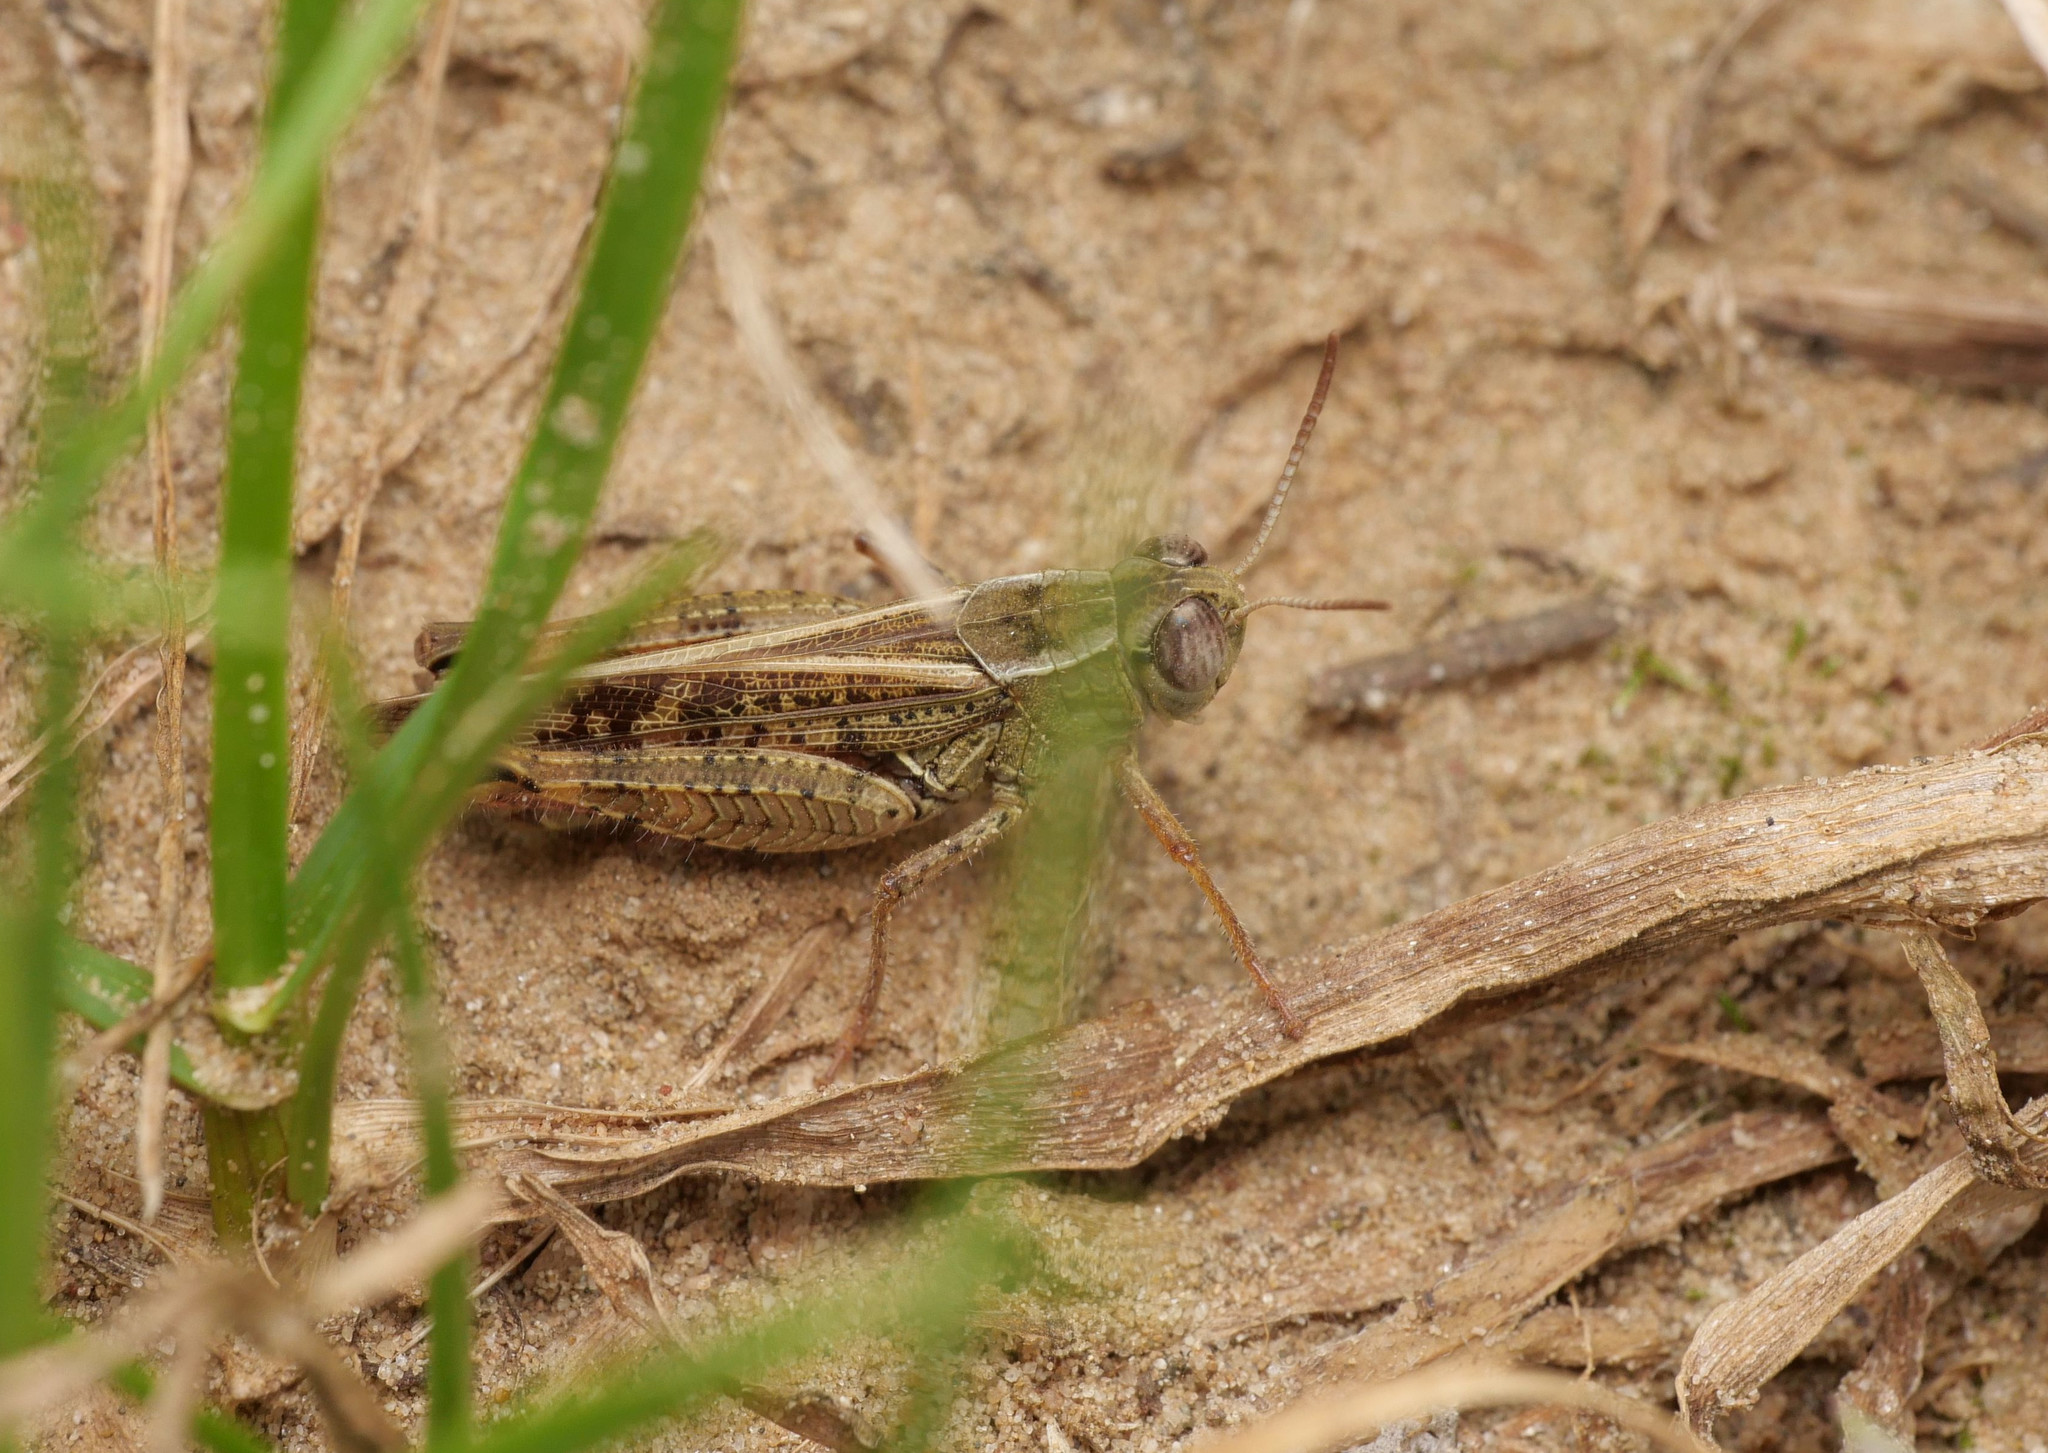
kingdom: Animalia
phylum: Arthropoda
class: Insecta
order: Orthoptera
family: Acrididae
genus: Calliptamus
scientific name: Calliptamus italicus
